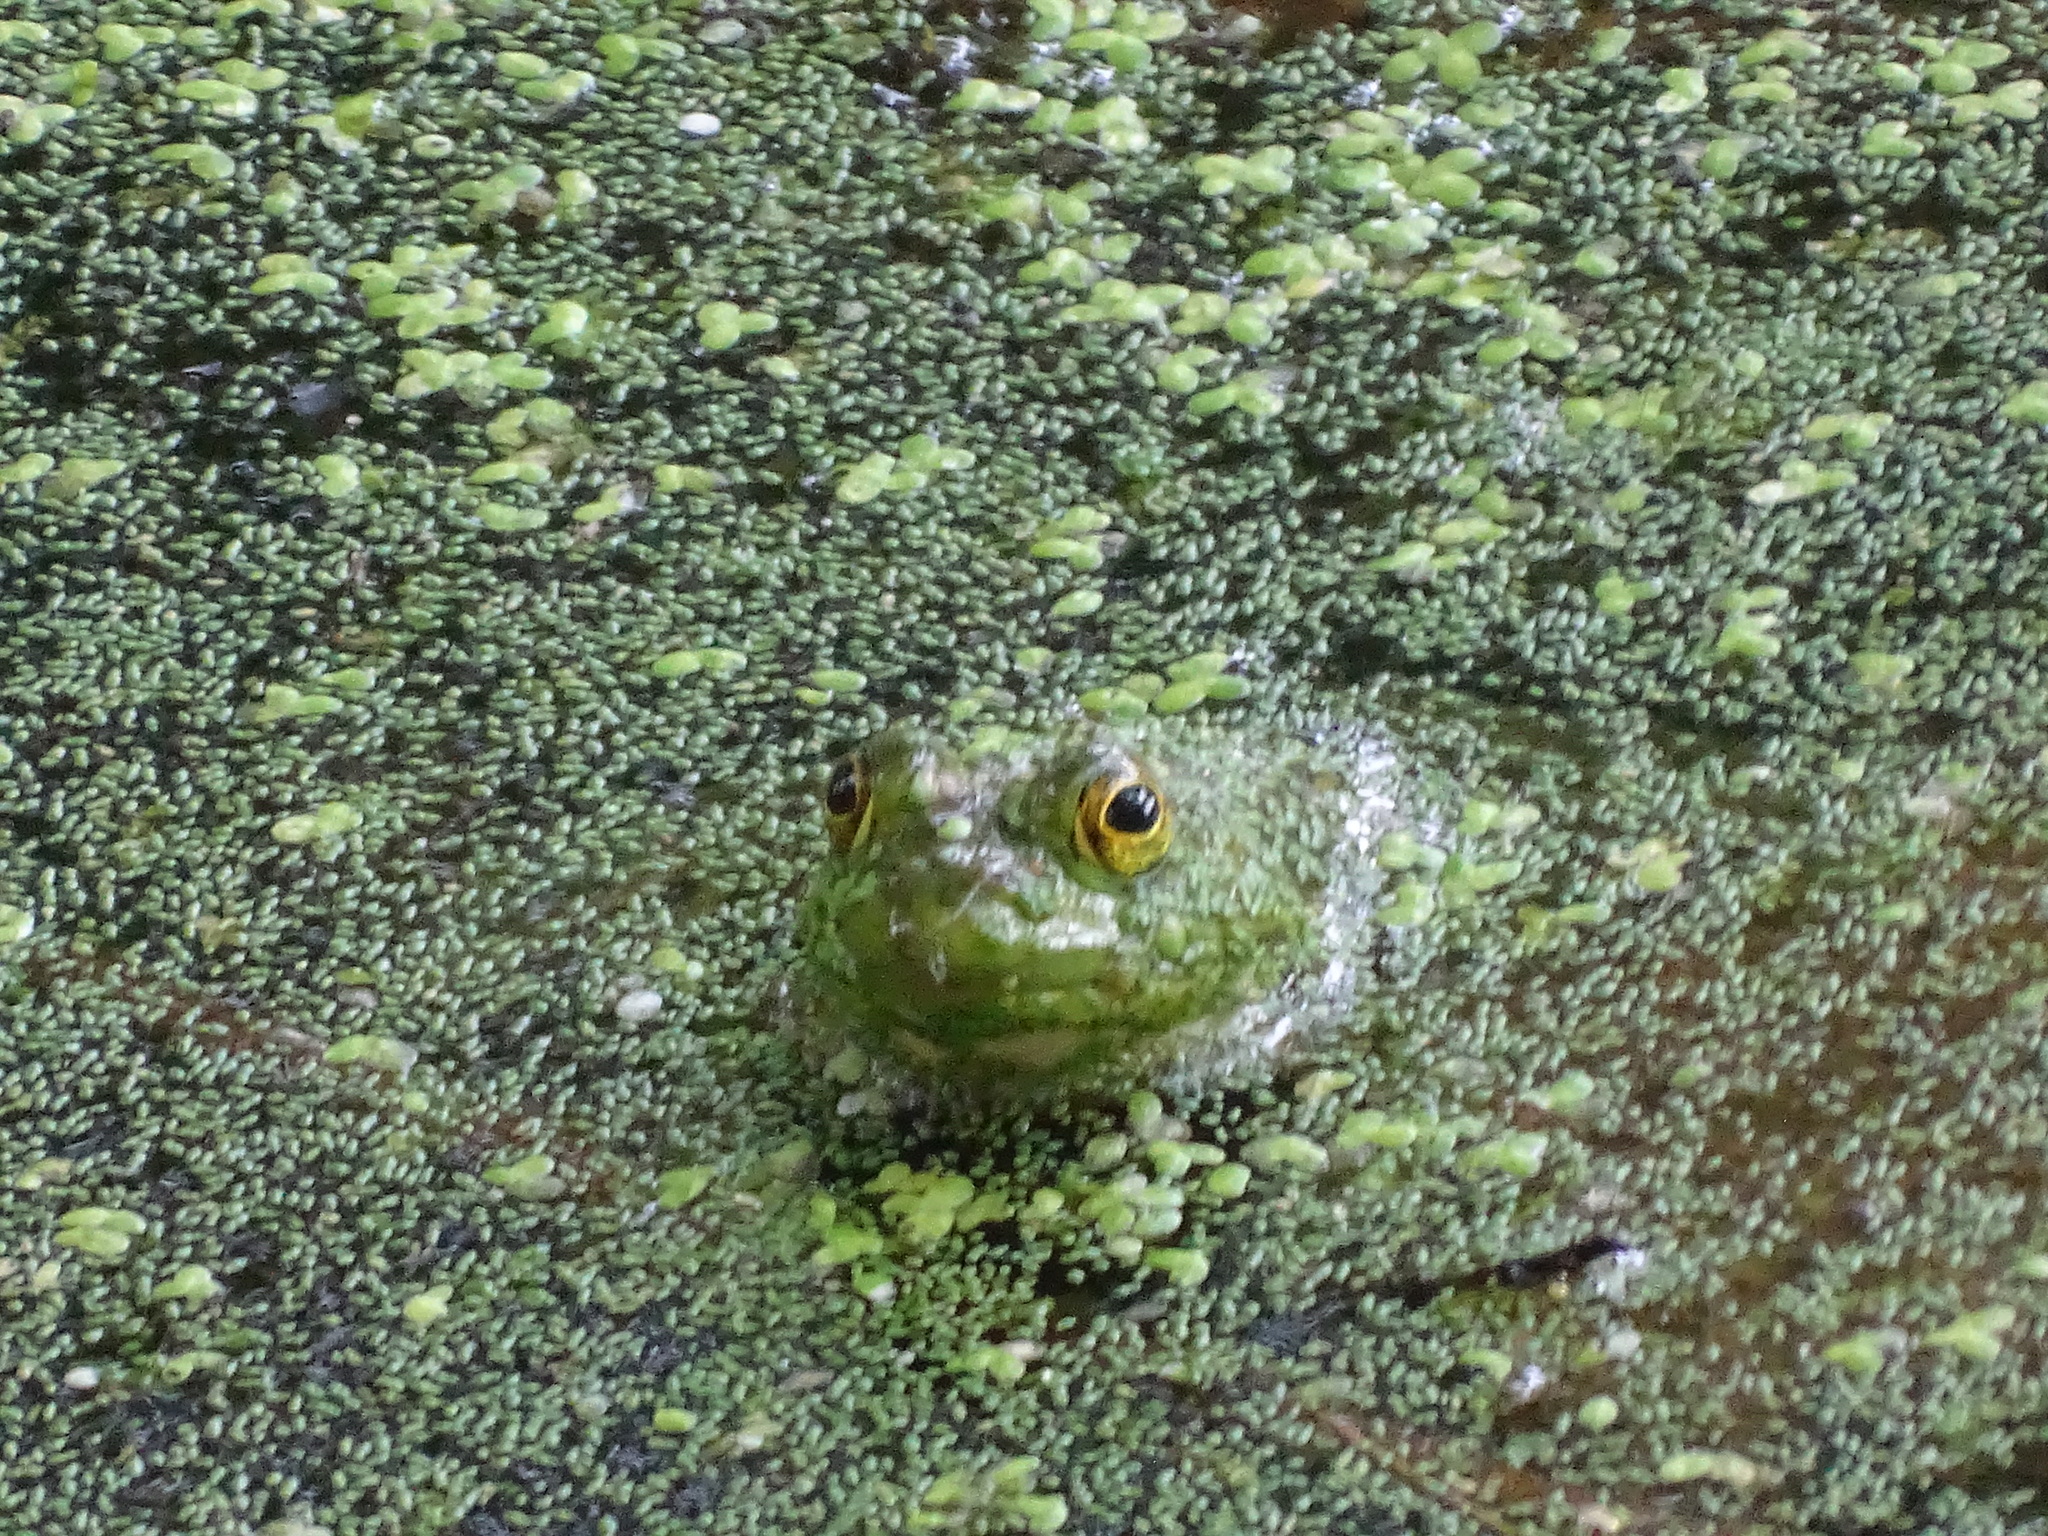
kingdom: Animalia
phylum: Chordata
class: Amphibia
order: Anura
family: Ranidae
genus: Lithobates
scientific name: Lithobates catesbeianus
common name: American bullfrog
